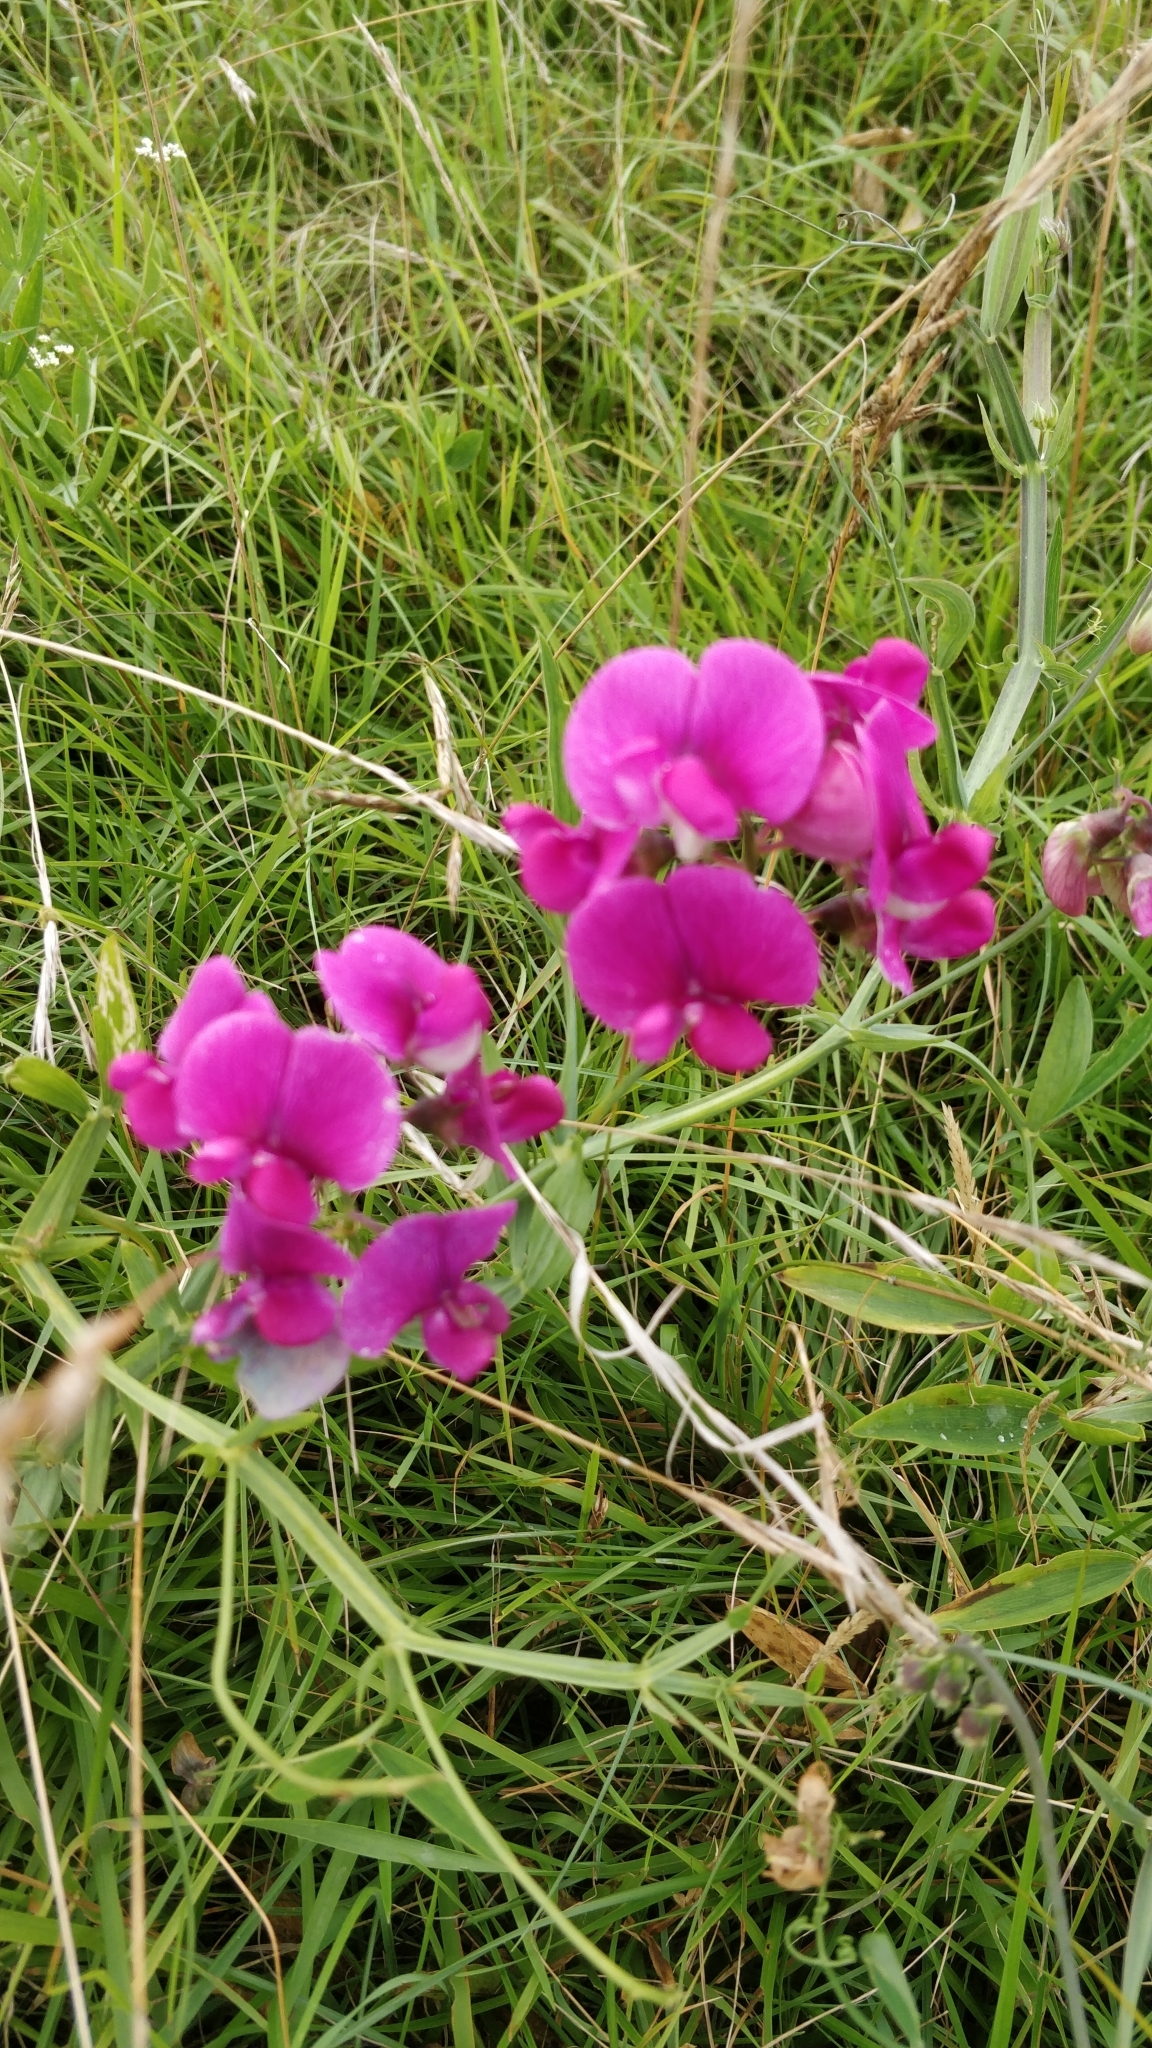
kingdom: Plantae
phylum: Tracheophyta
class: Magnoliopsida
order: Fabales
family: Fabaceae
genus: Lathyrus
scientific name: Lathyrus latifolius
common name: Perennial pea
